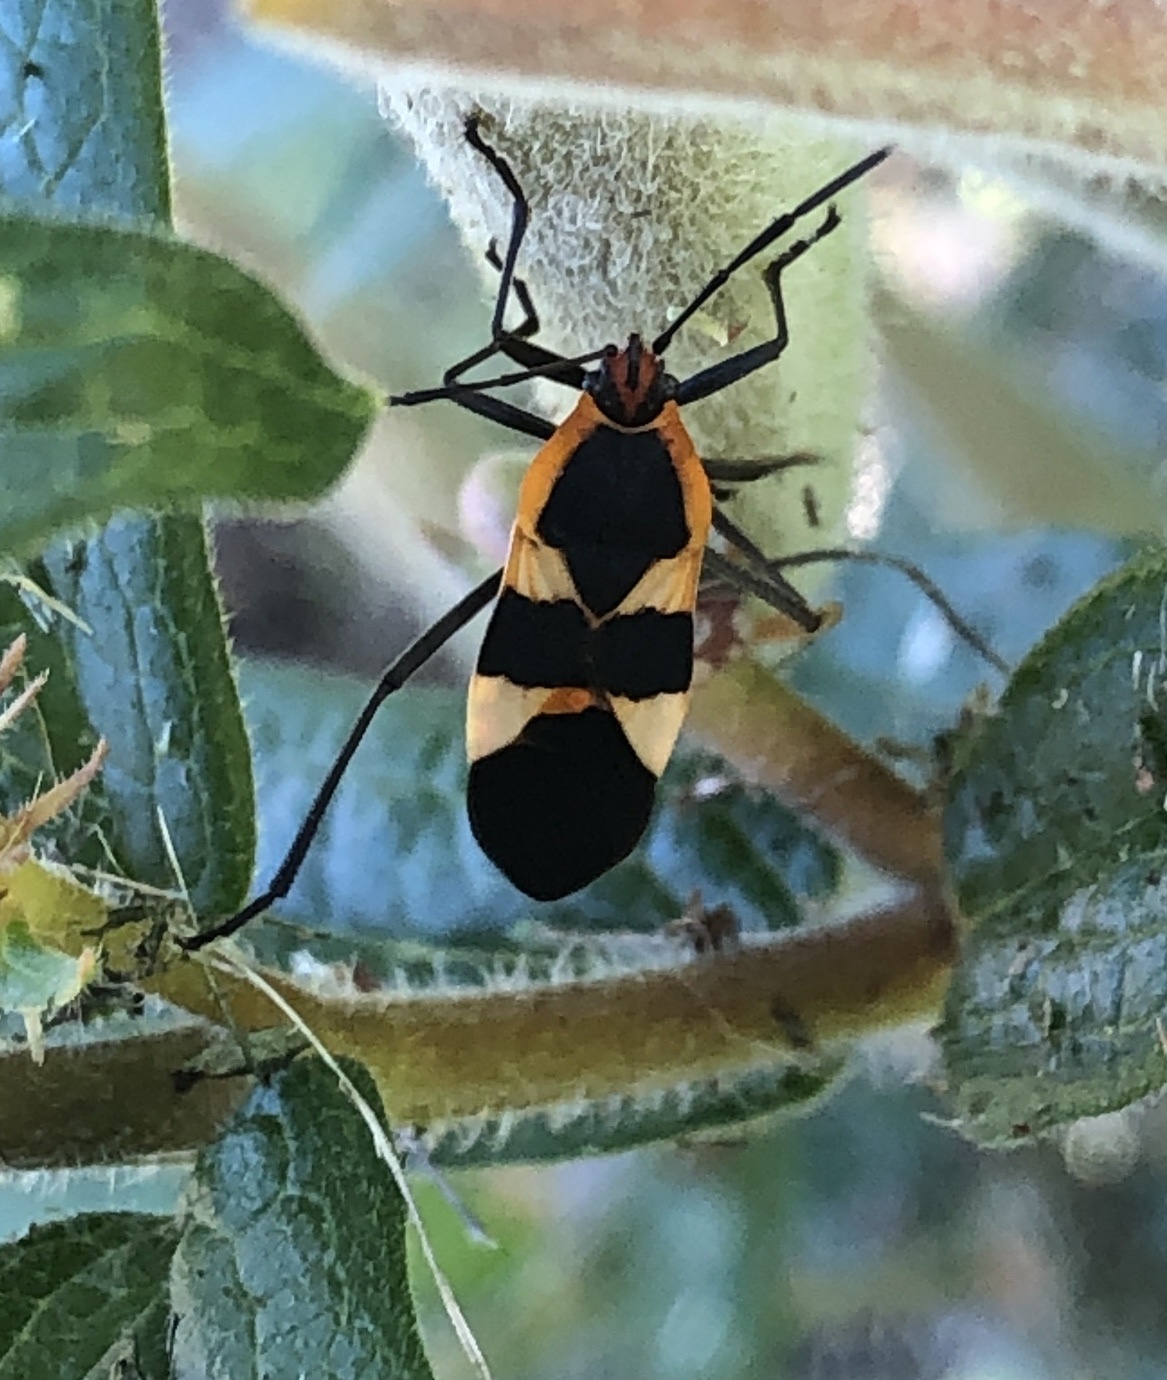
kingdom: Animalia
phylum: Arthropoda
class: Insecta
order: Hemiptera
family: Lygaeidae
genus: Oncopeltus
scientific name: Oncopeltus fasciatus
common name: Large milkweed bug
